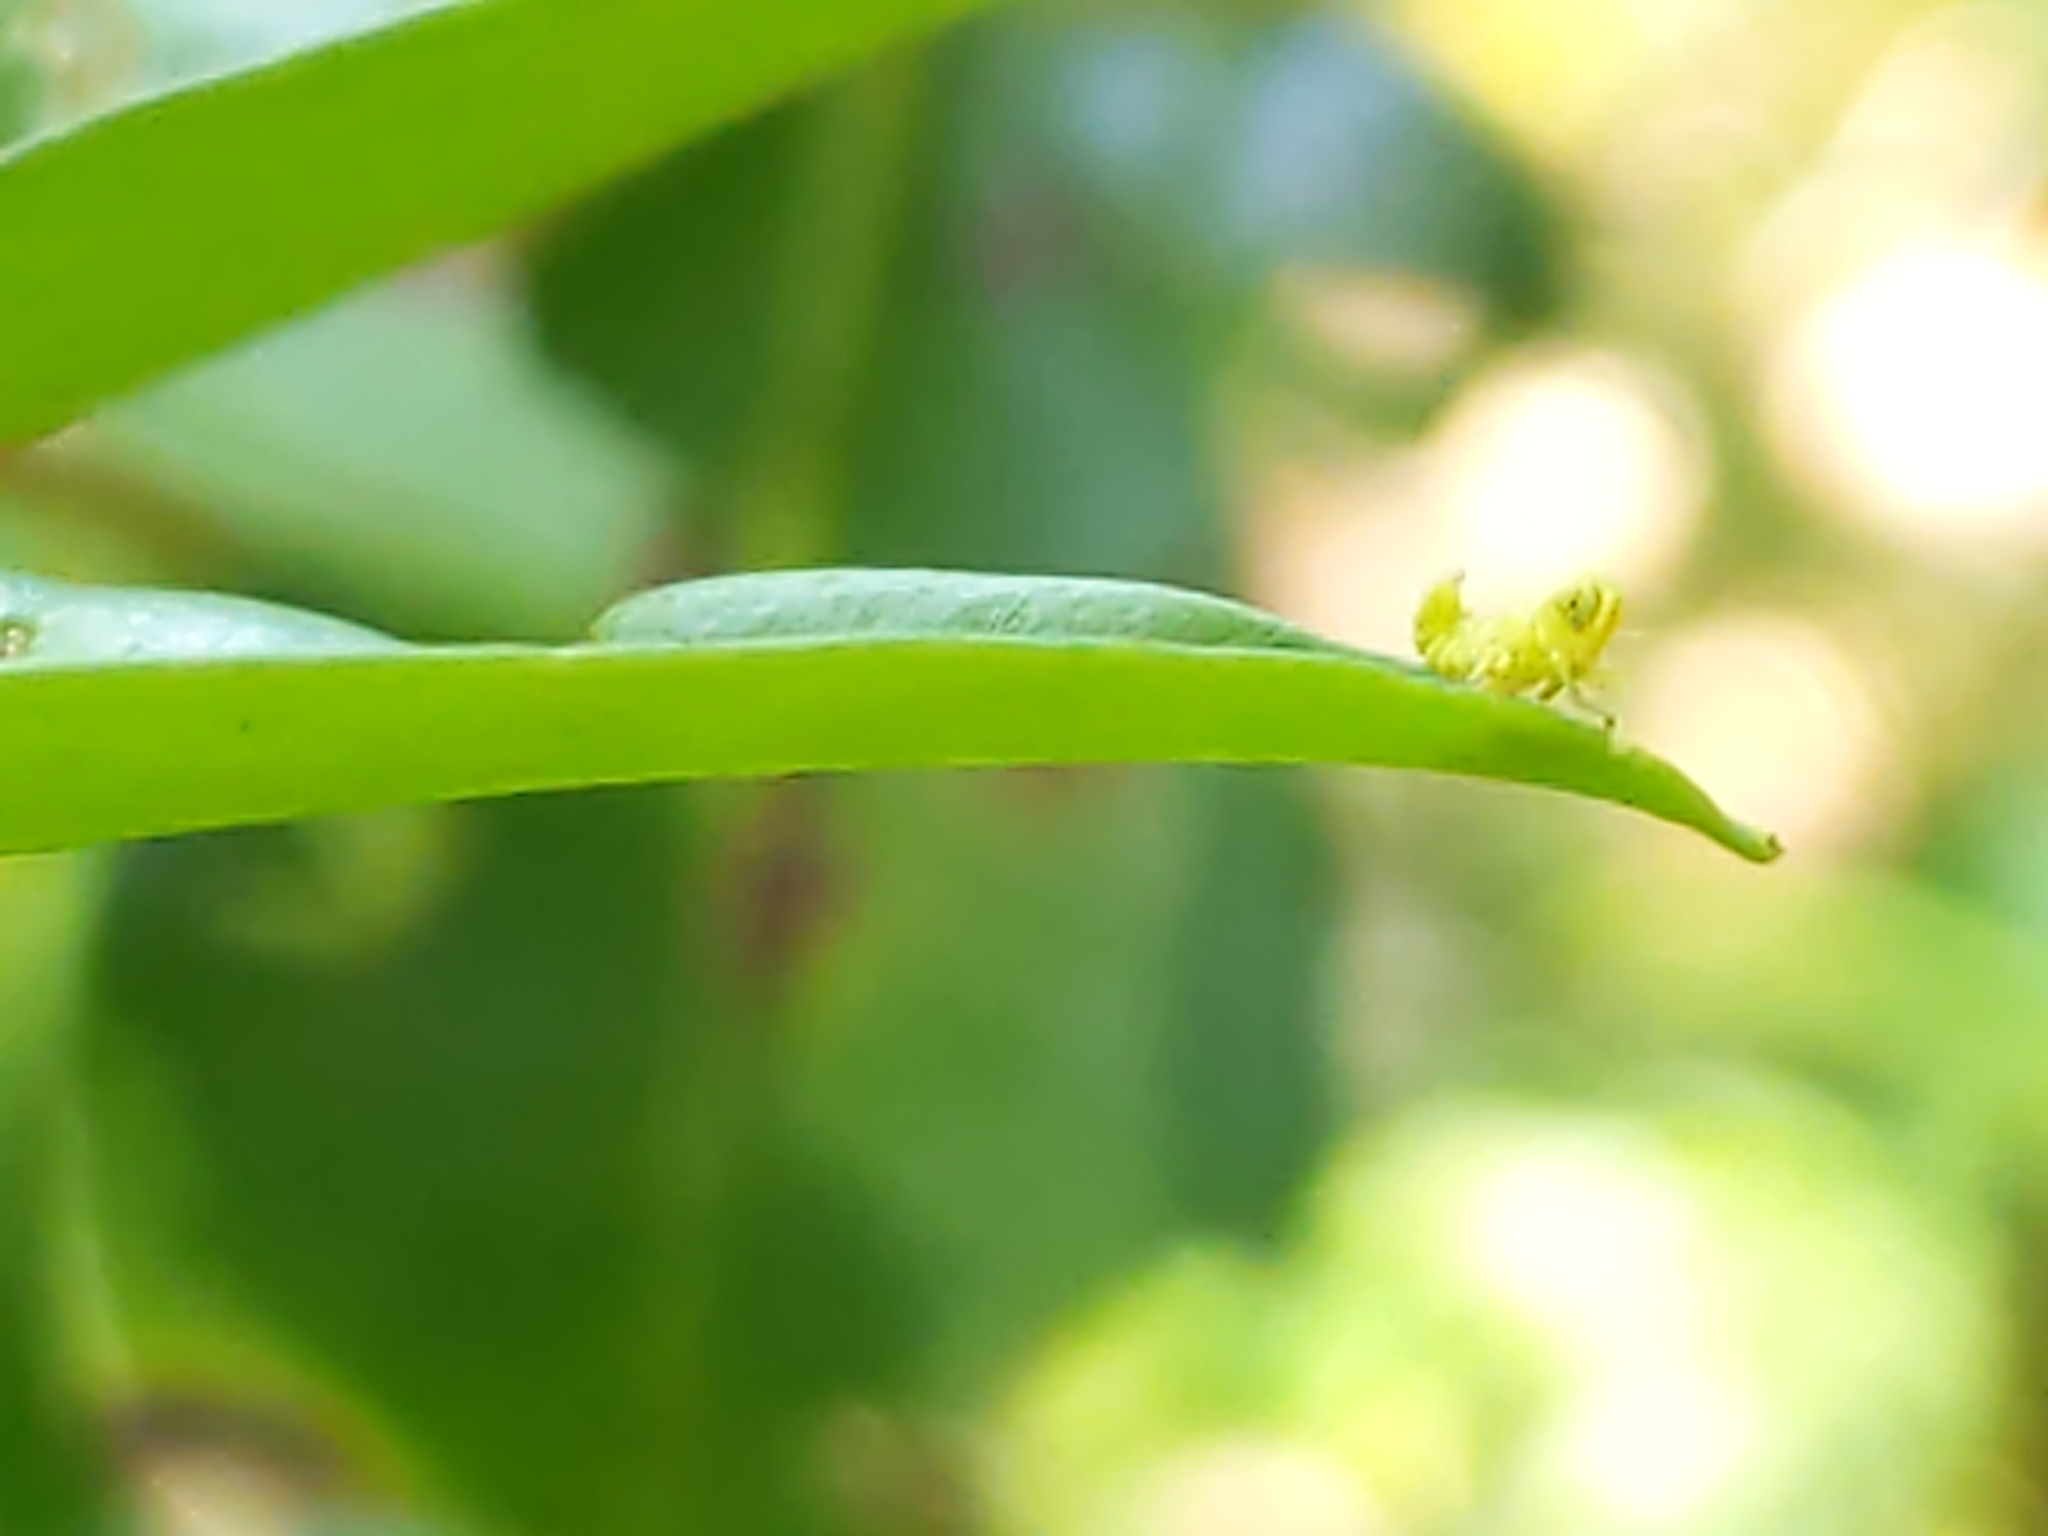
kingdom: Animalia
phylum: Arthropoda
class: Insecta
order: Hemiptera
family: Cicadellidae
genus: Jikradia
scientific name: Jikradia olitoria
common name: Coppery leafhopper
